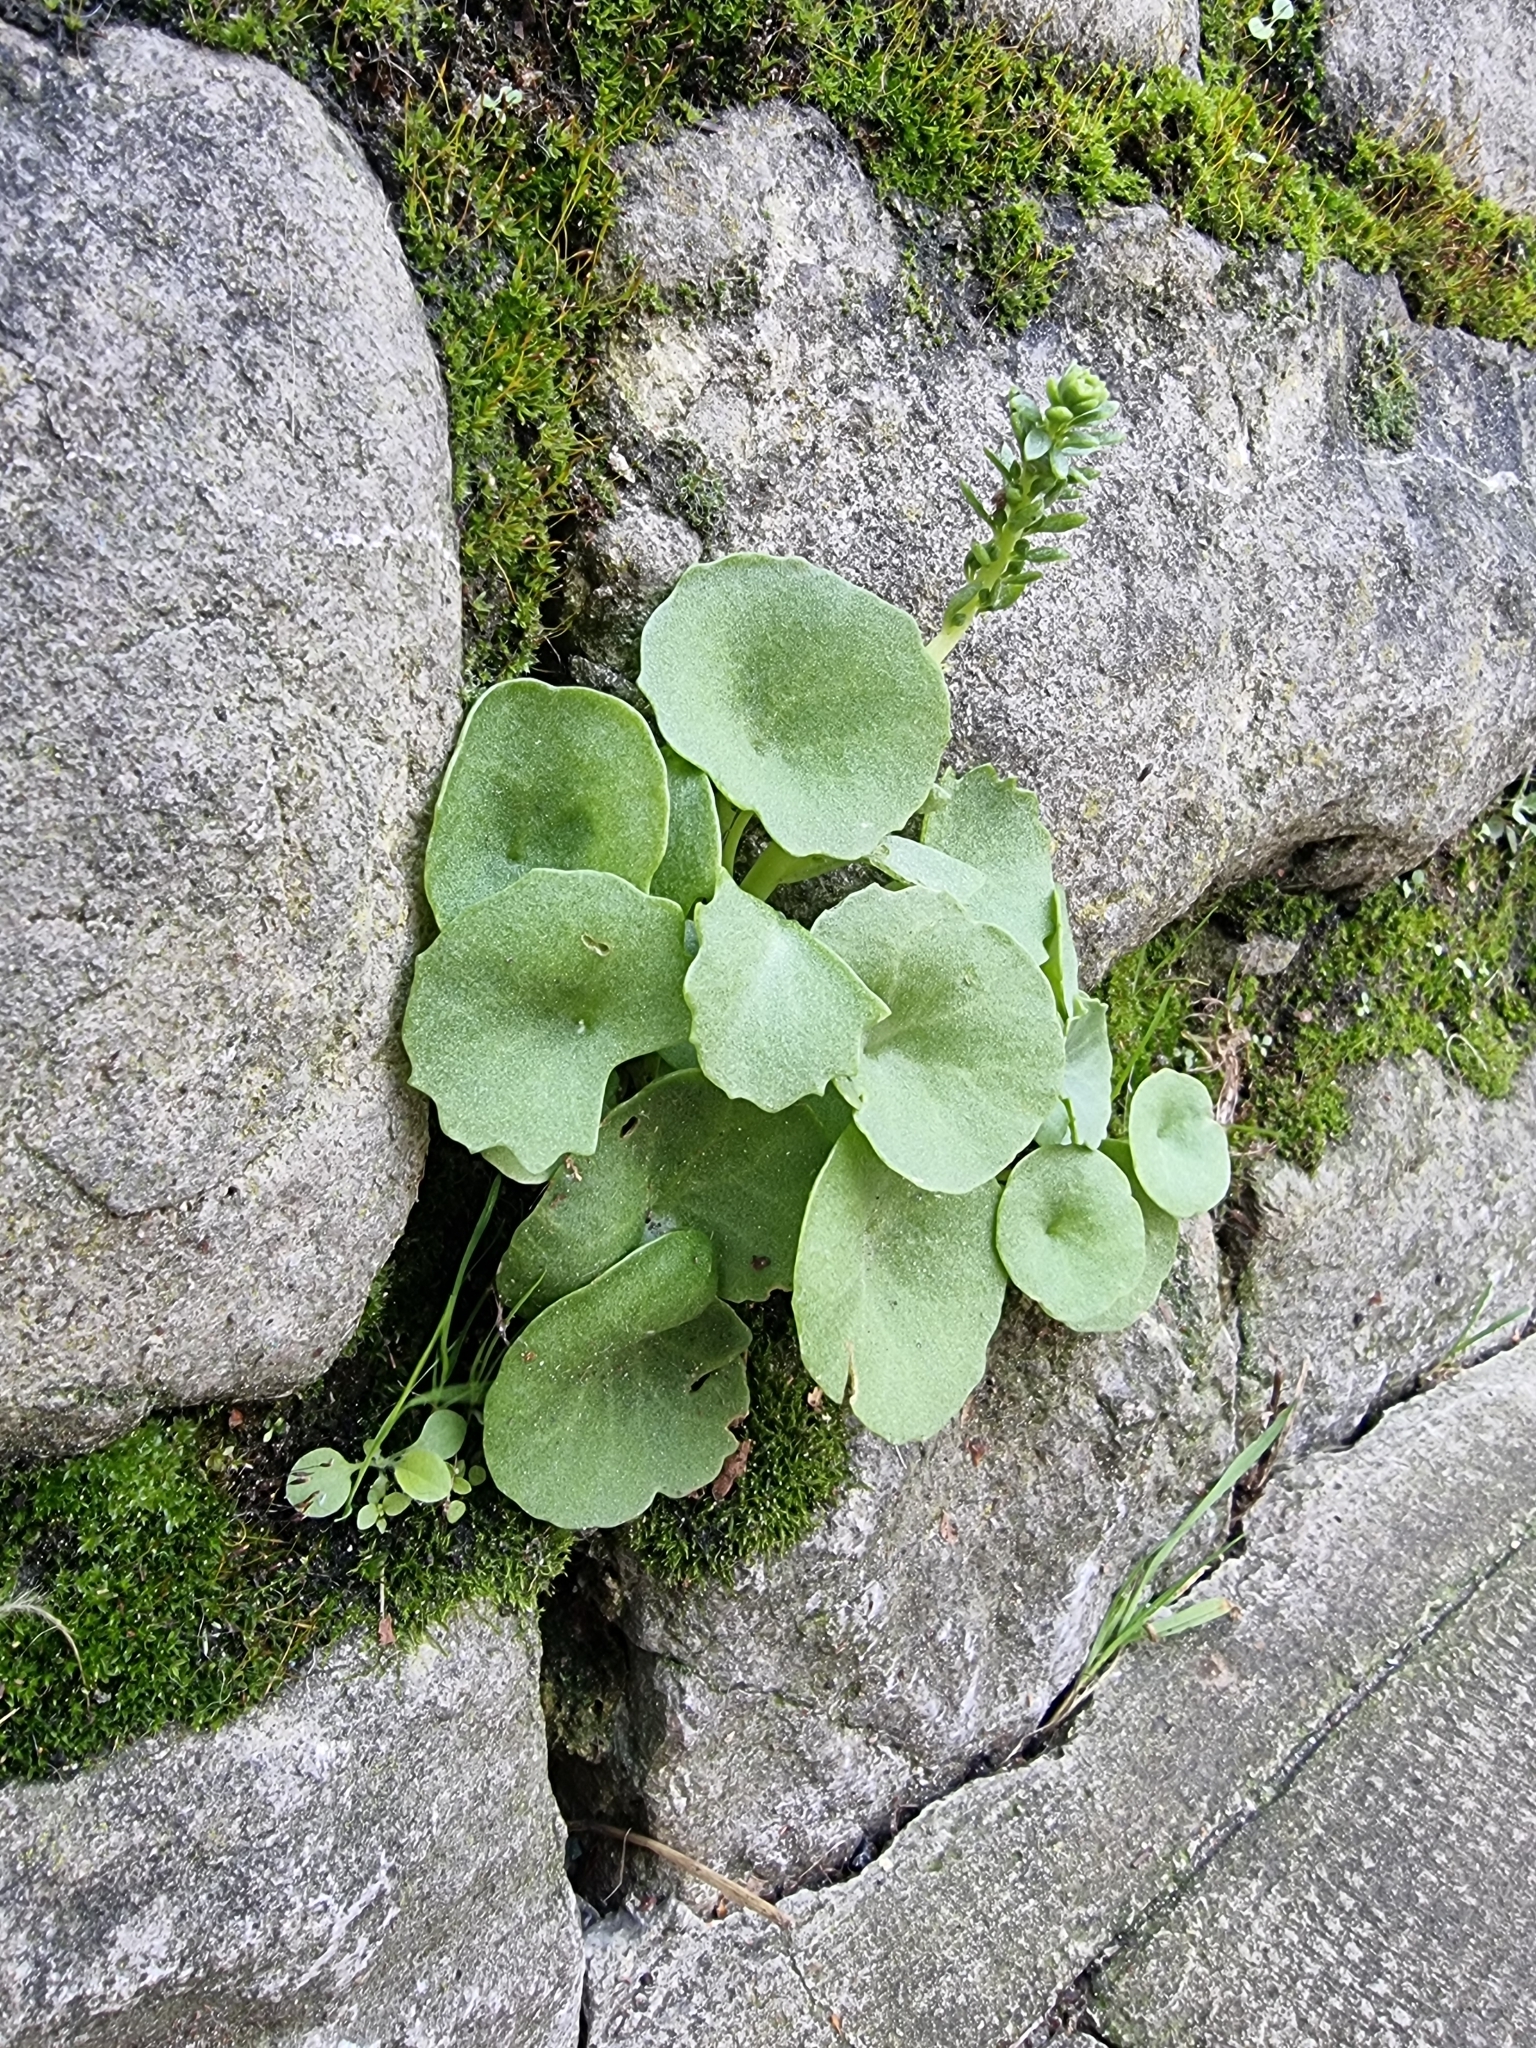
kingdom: Plantae
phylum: Tracheophyta
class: Magnoliopsida
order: Saxifragales
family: Crassulaceae
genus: Umbilicus
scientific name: Umbilicus rupestris
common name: Navelwort
